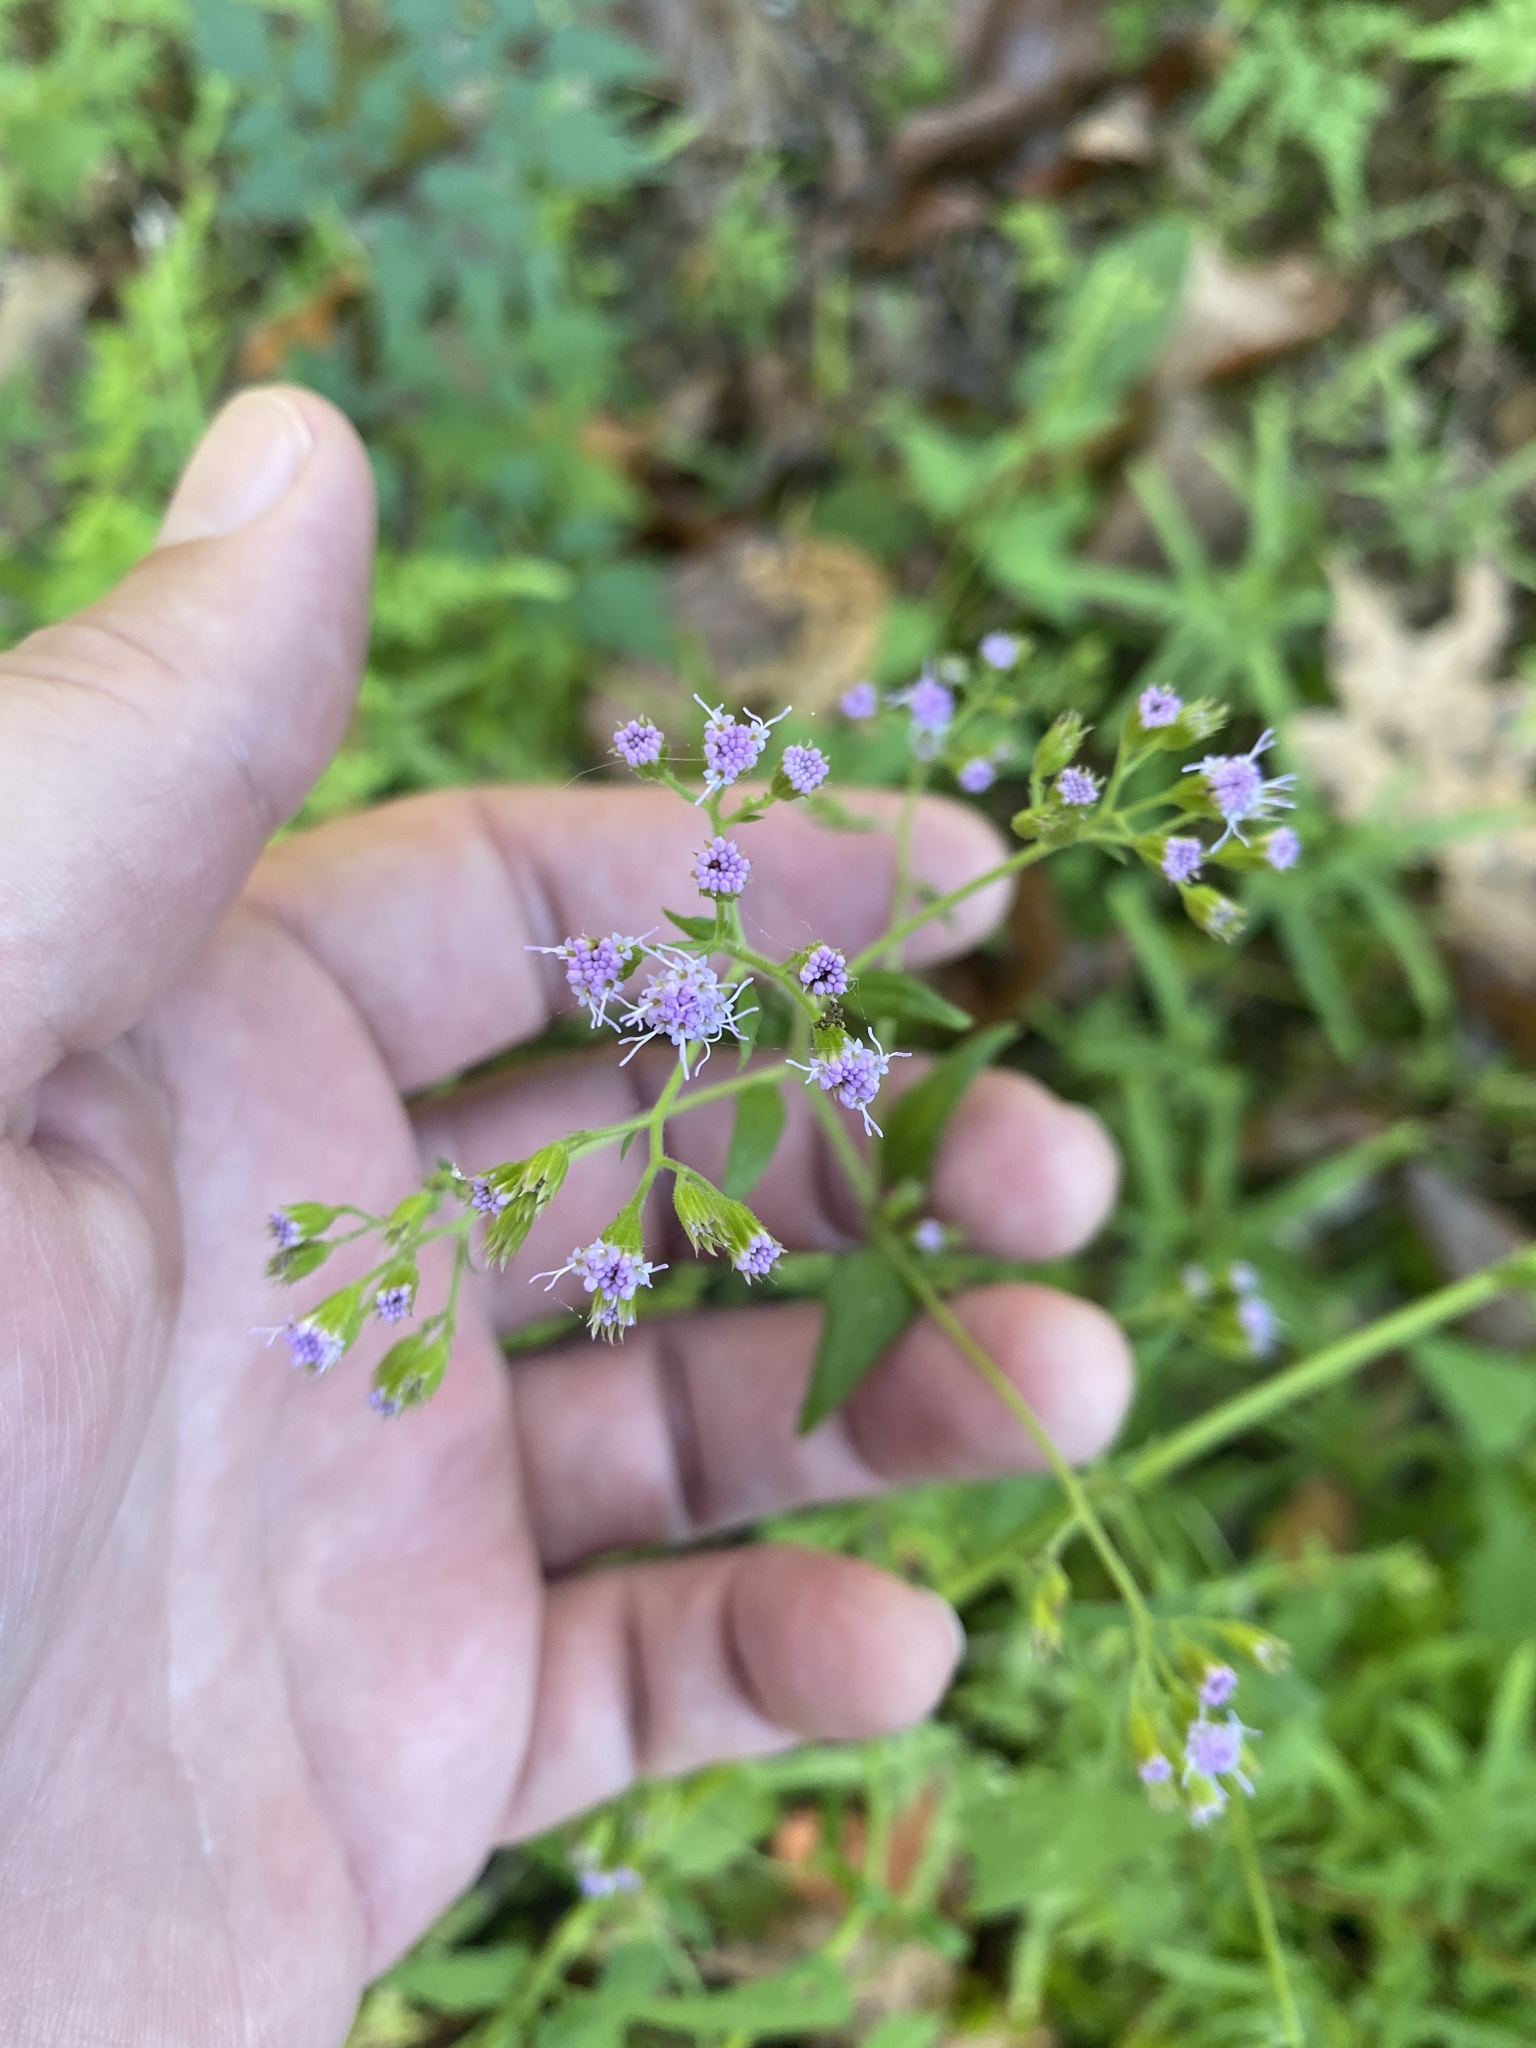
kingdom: Plantae
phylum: Tracheophyta
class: Magnoliopsida
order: Asterales
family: Asteraceae
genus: Fleischmannia
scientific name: Fleischmannia incarnata
